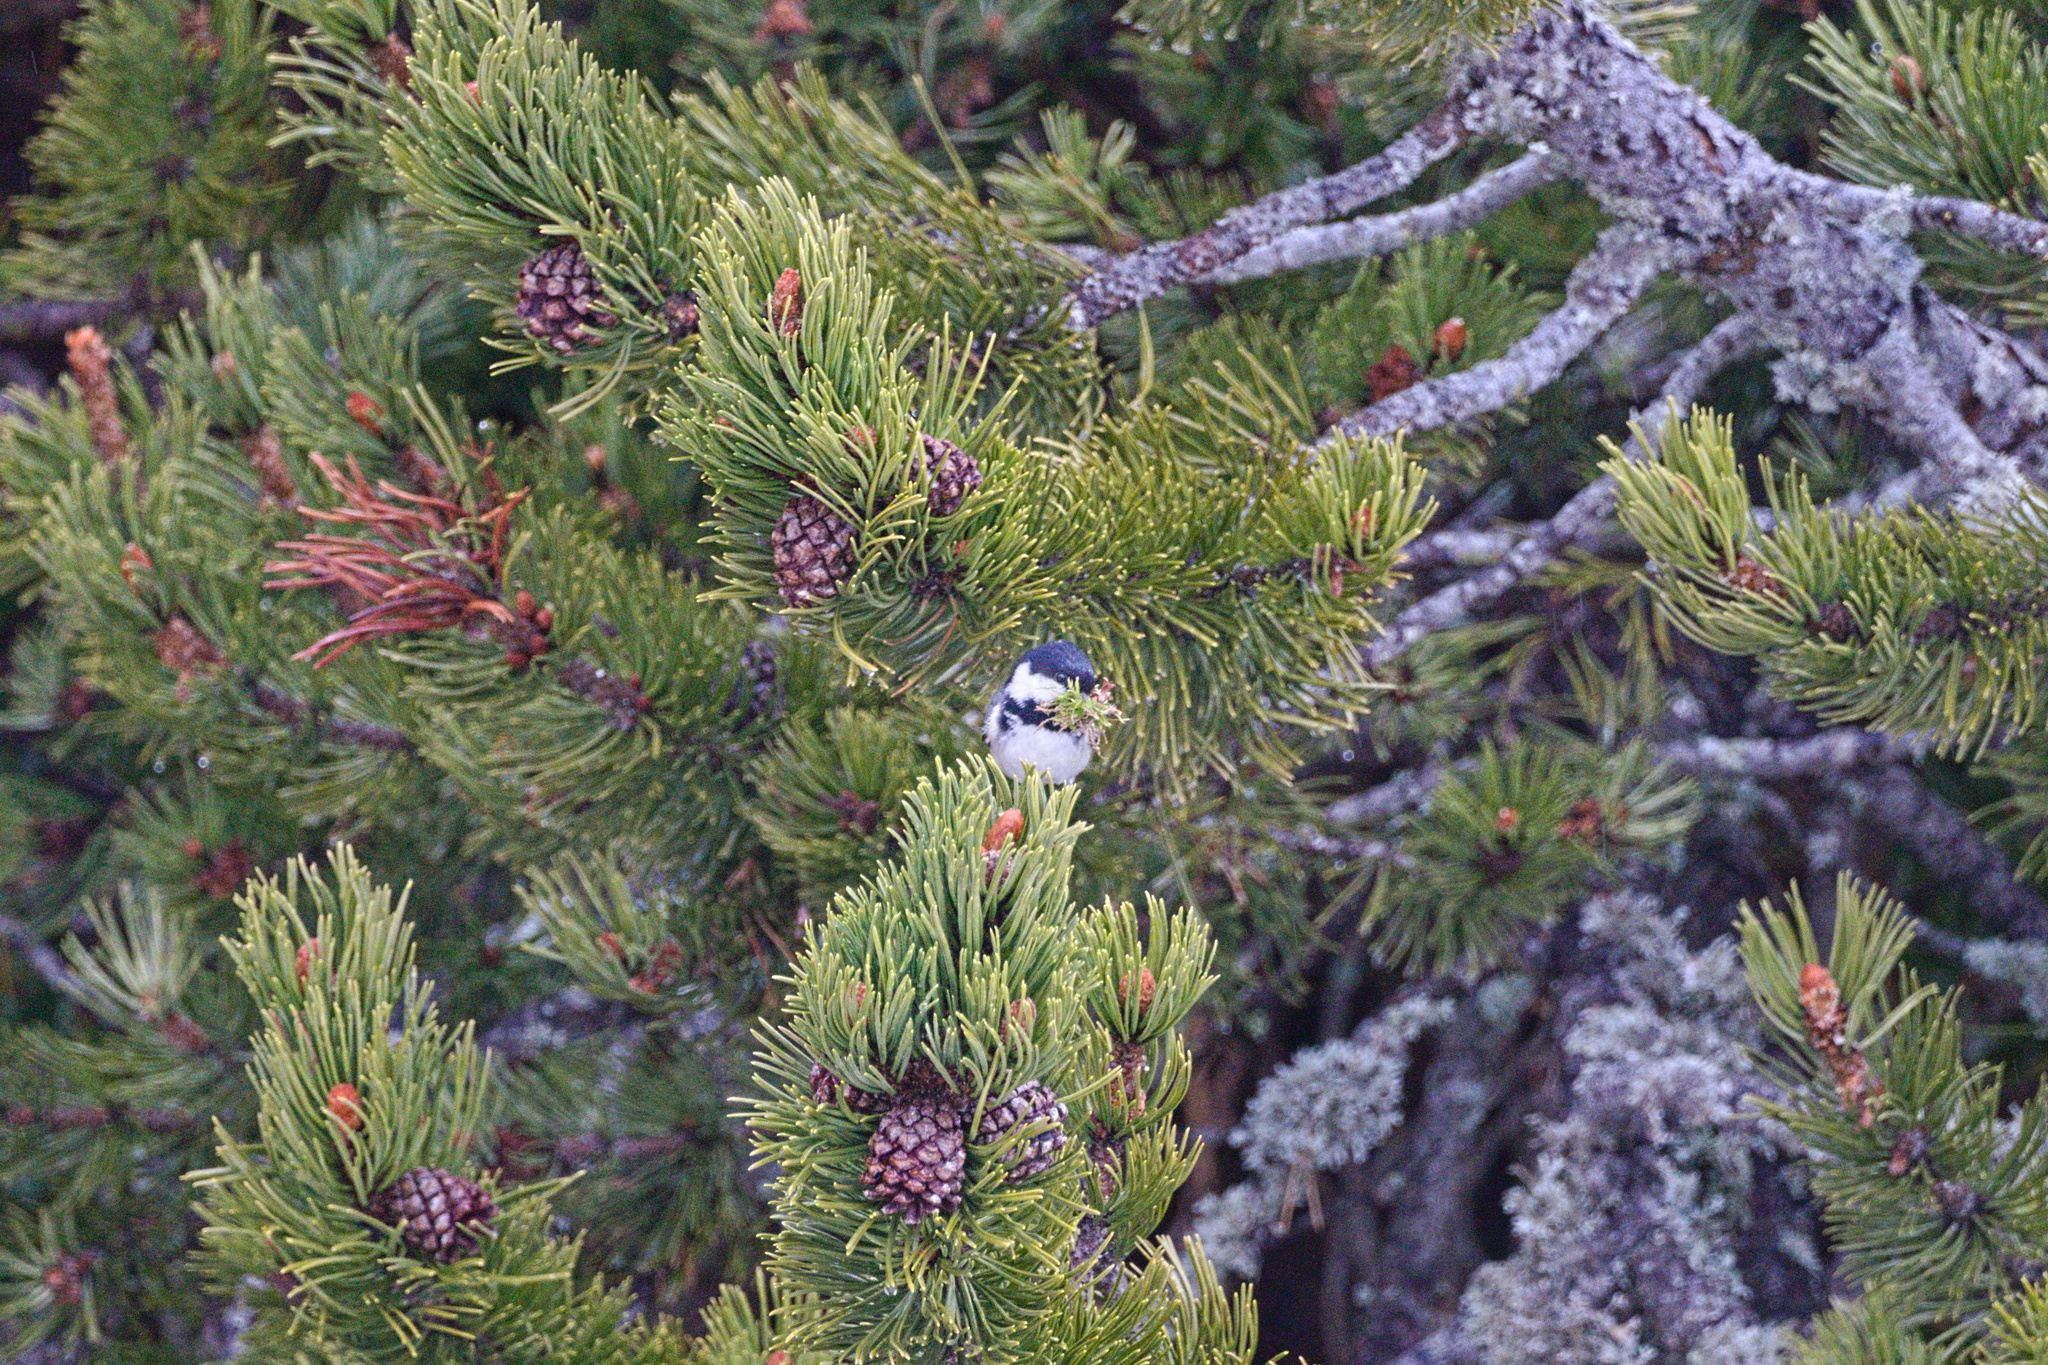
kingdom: Animalia
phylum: Chordata
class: Aves
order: Passeriformes
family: Paridae
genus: Periparus
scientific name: Periparus ater
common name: Coal tit
